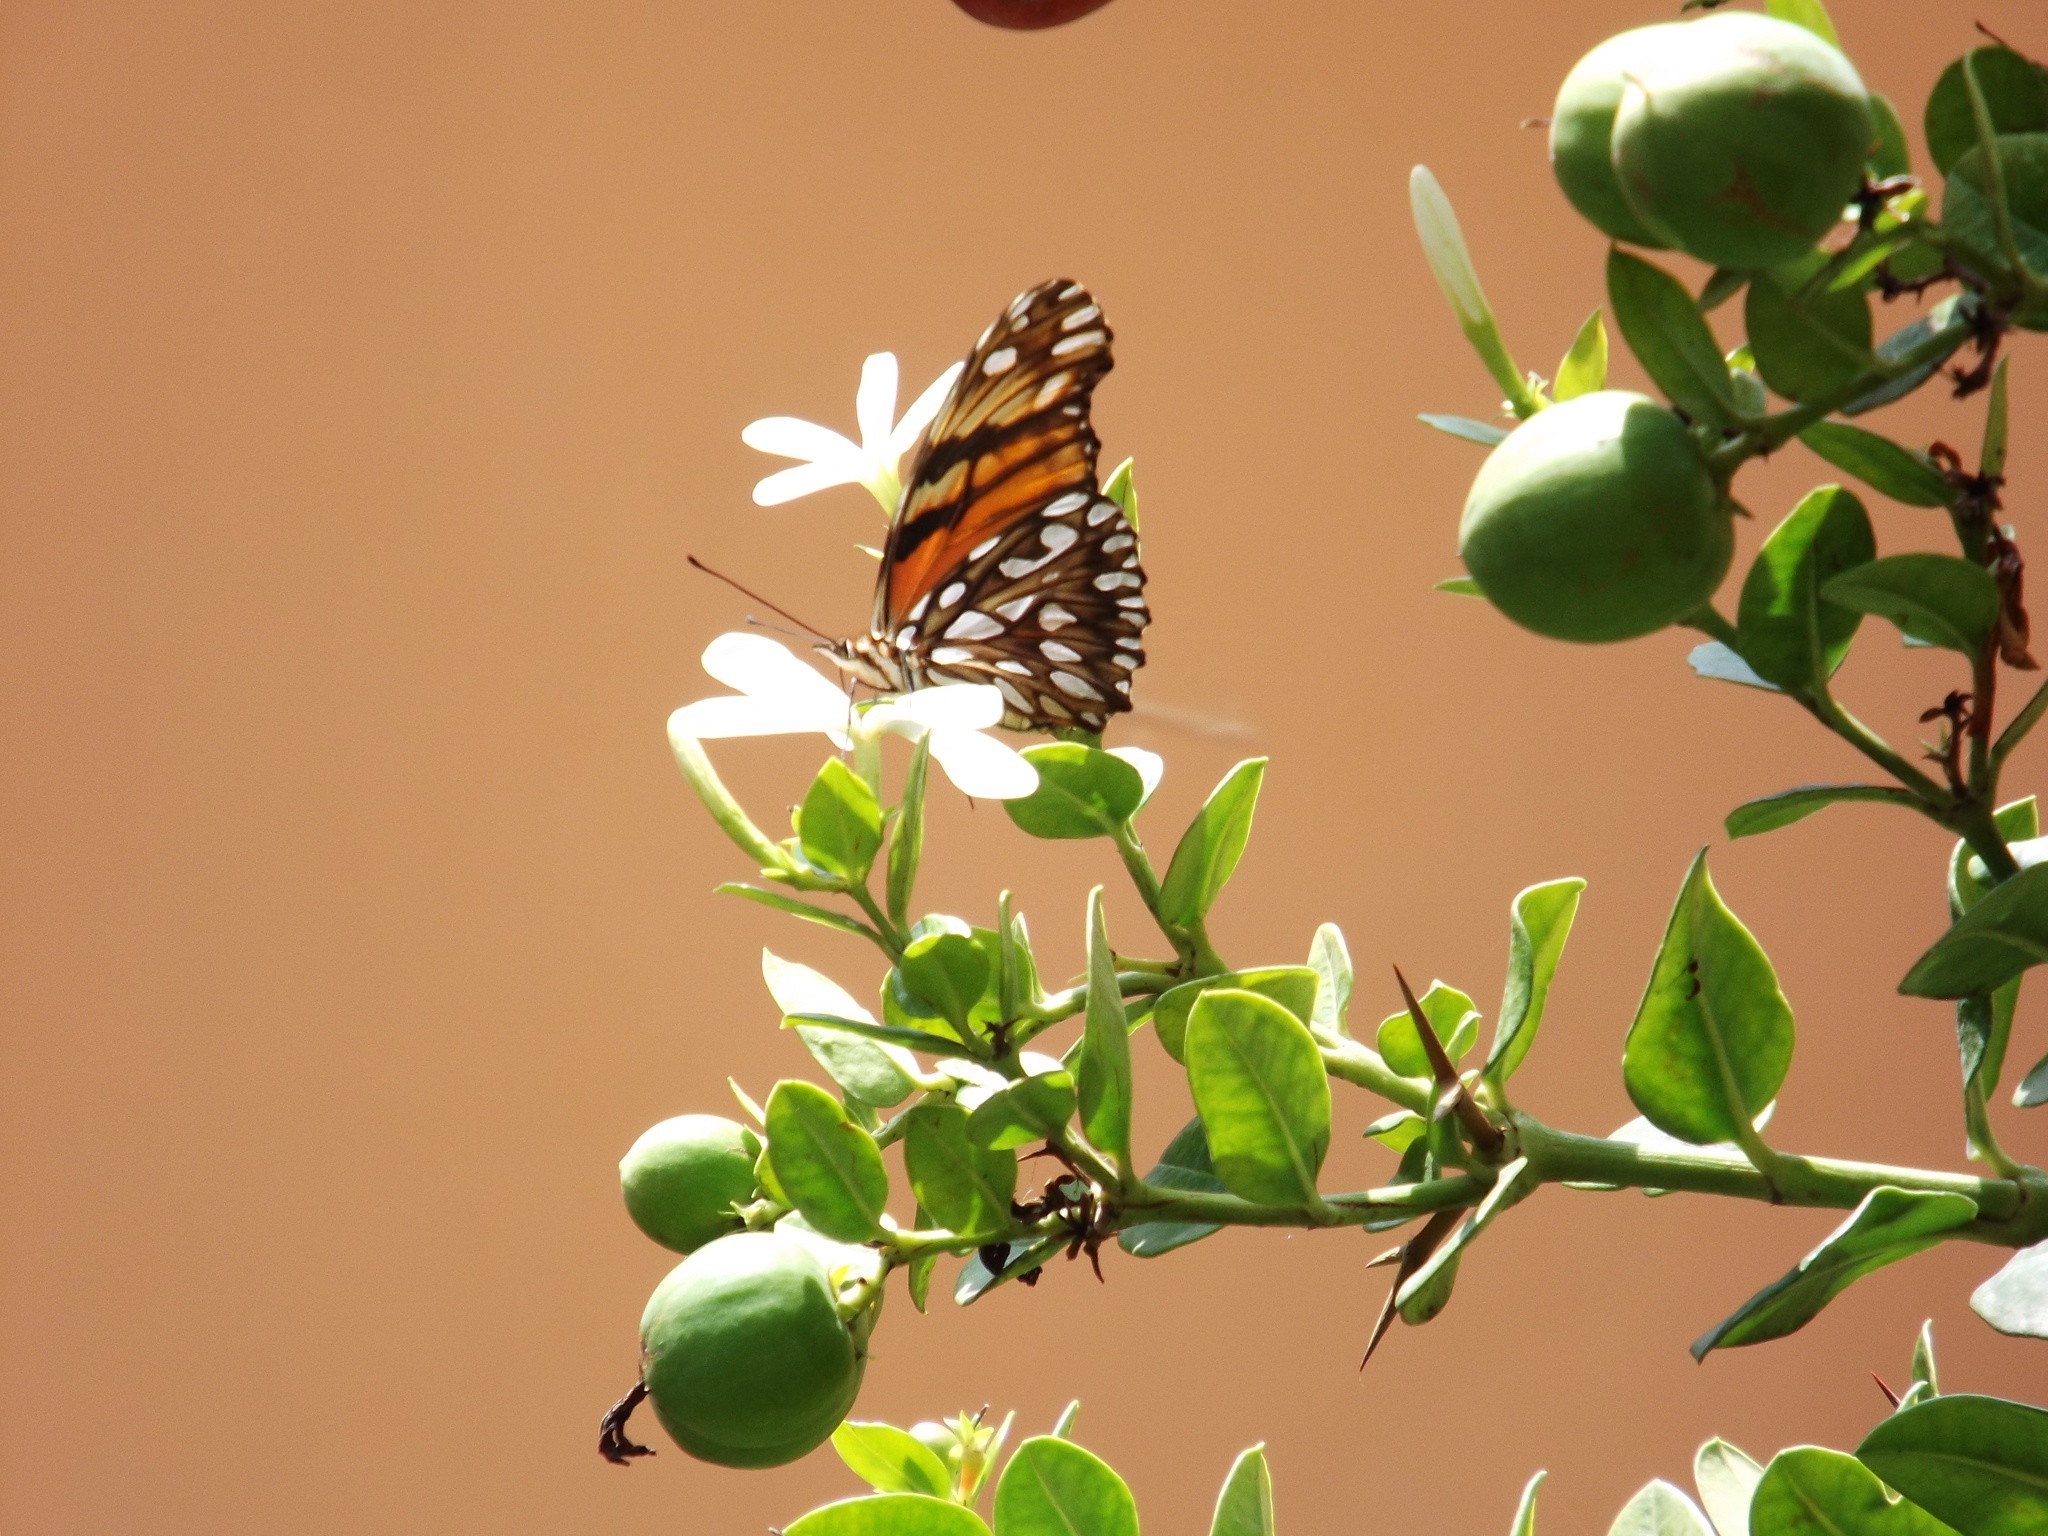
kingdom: Animalia
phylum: Arthropoda
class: Insecta
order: Lepidoptera
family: Nymphalidae
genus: Dione
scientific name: Dione juno
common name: Juno silverspot
